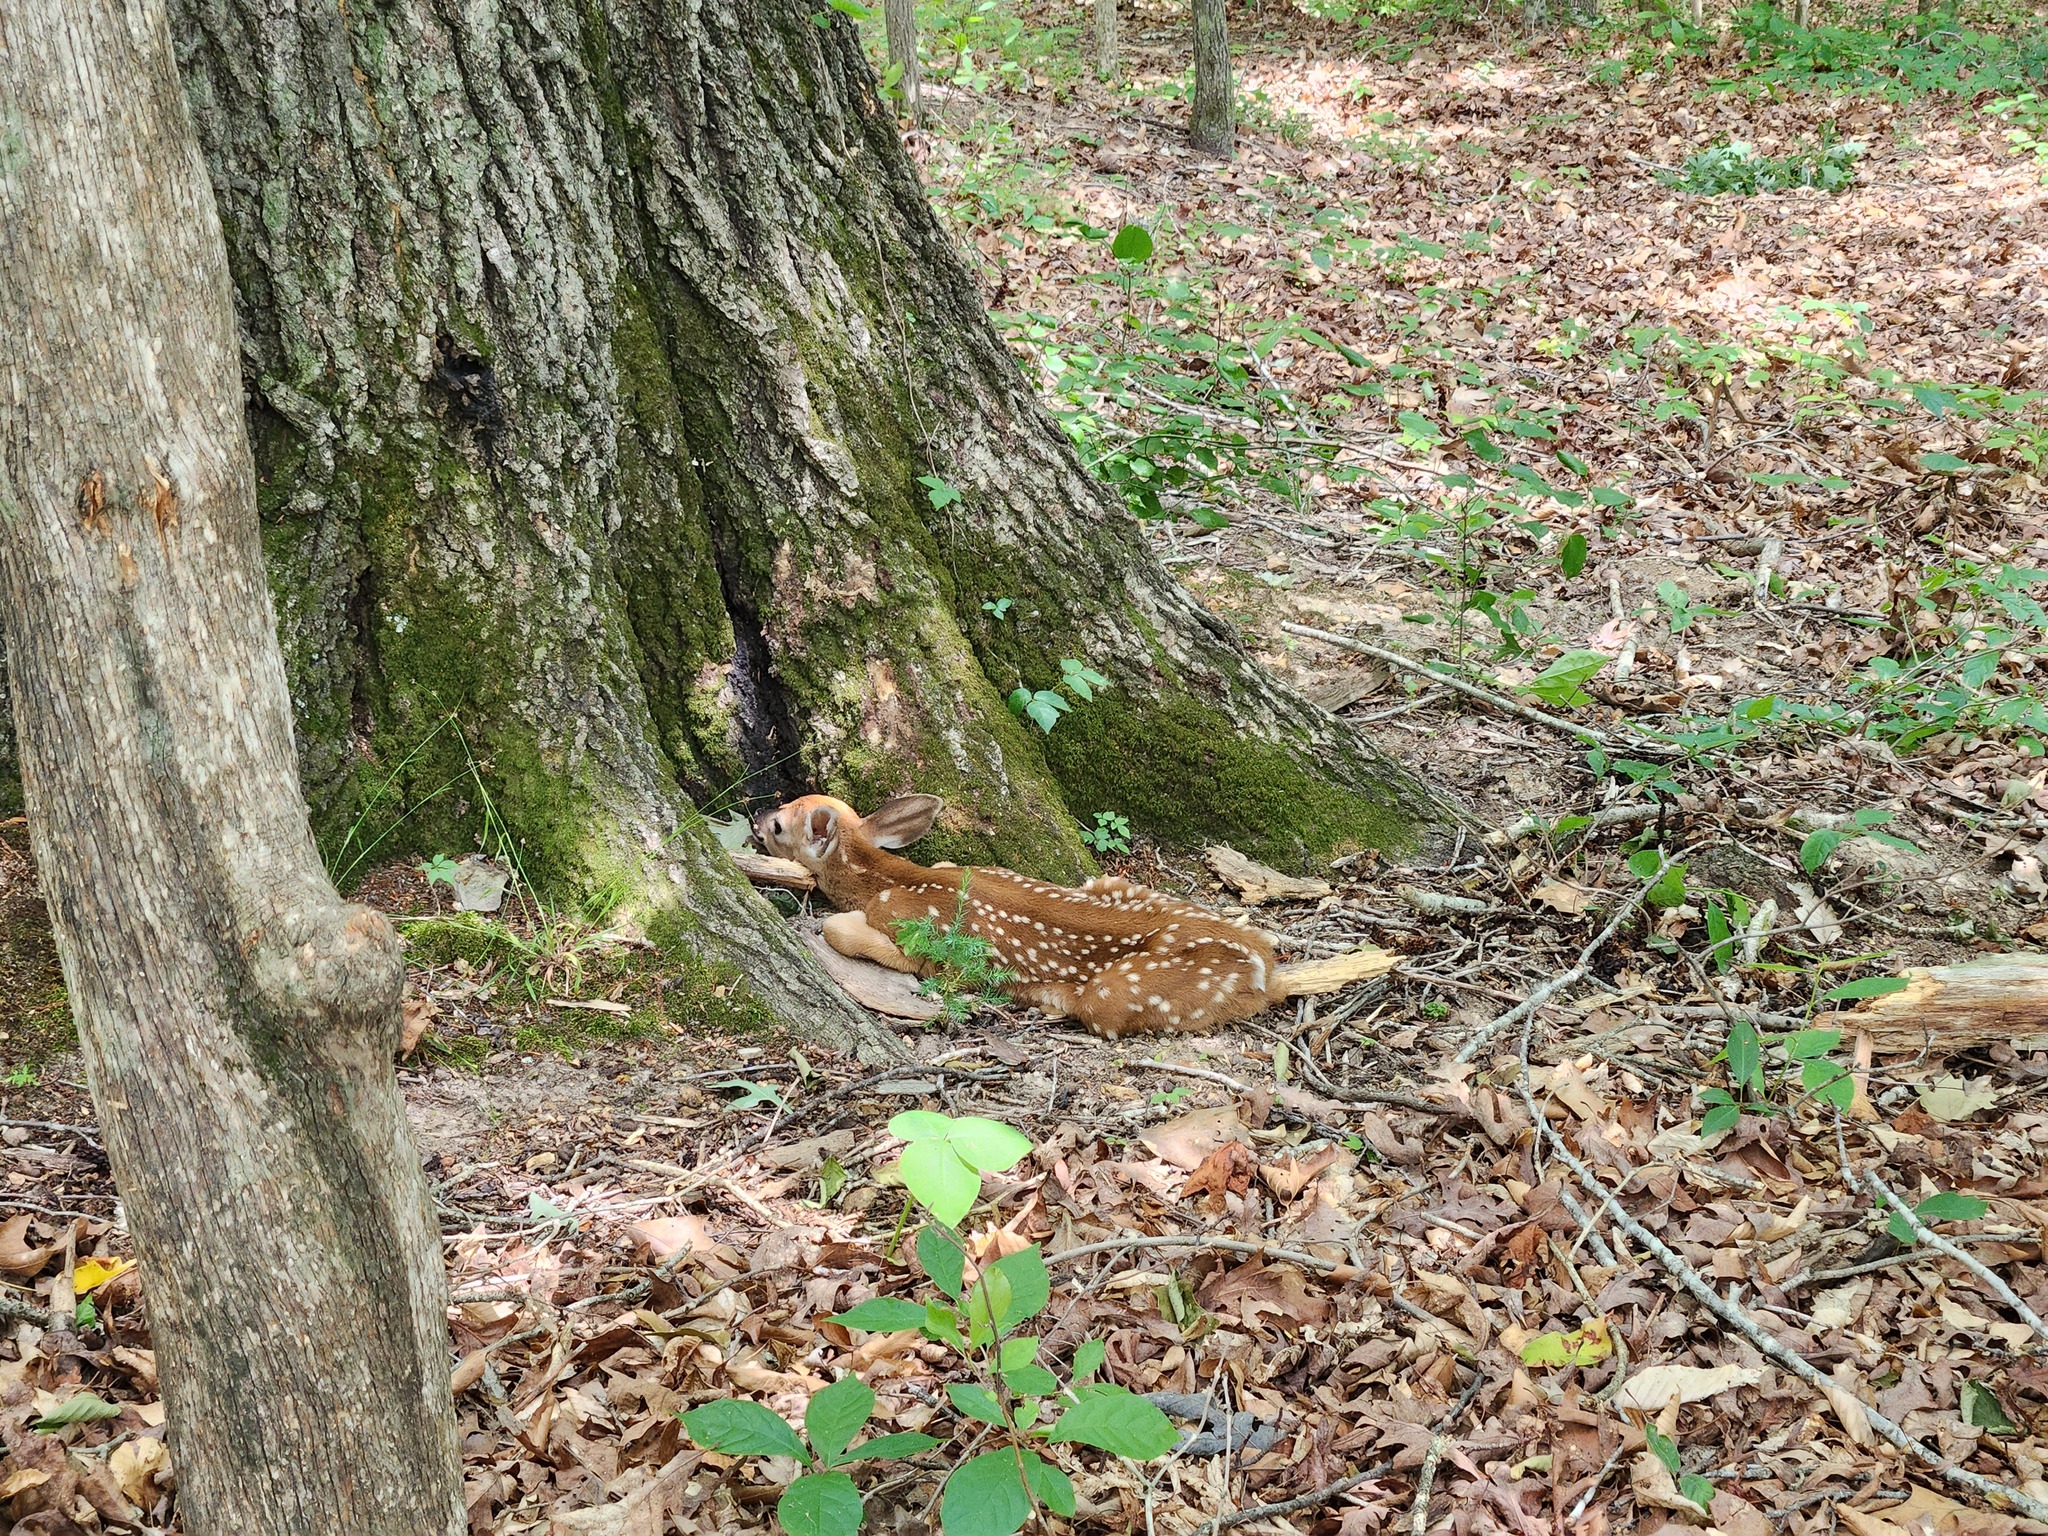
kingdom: Animalia
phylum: Chordata
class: Mammalia
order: Artiodactyla
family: Cervidae
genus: Odocoileus
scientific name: Odocoileus virginianus
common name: White-tailed deer
